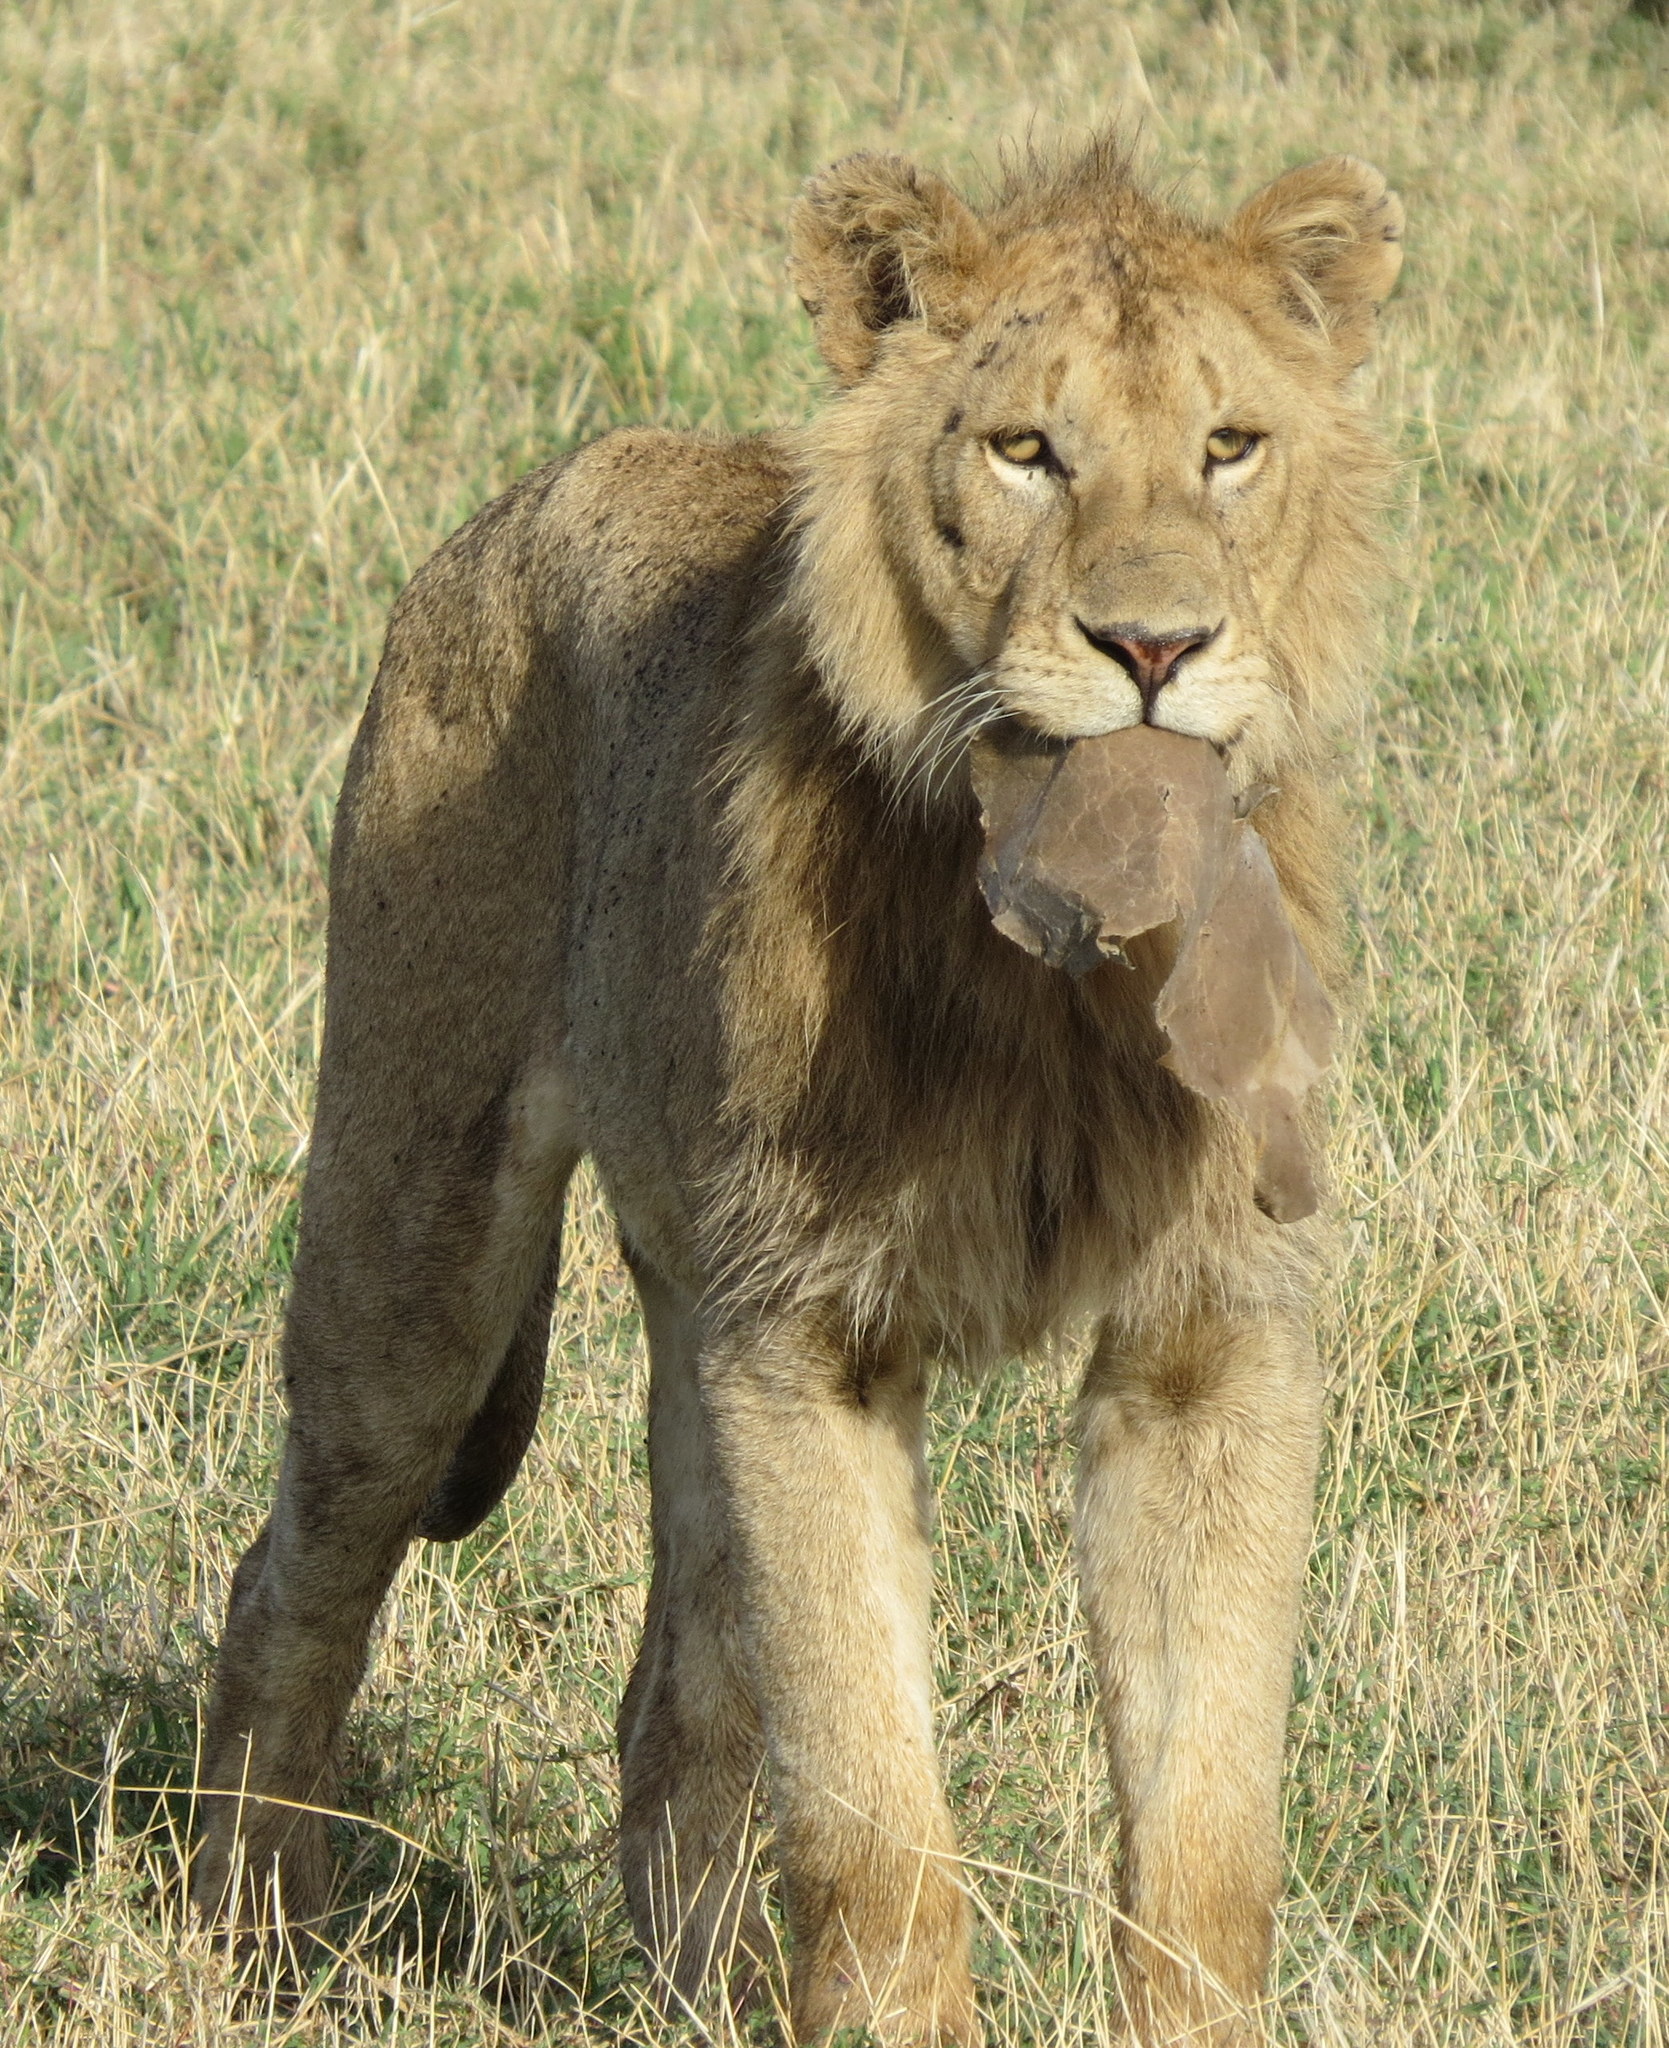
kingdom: Animalia
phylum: Chordata
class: Mammalia
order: Carnivora
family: Felidae
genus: Panthera
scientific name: Panthera leo
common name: Lion
